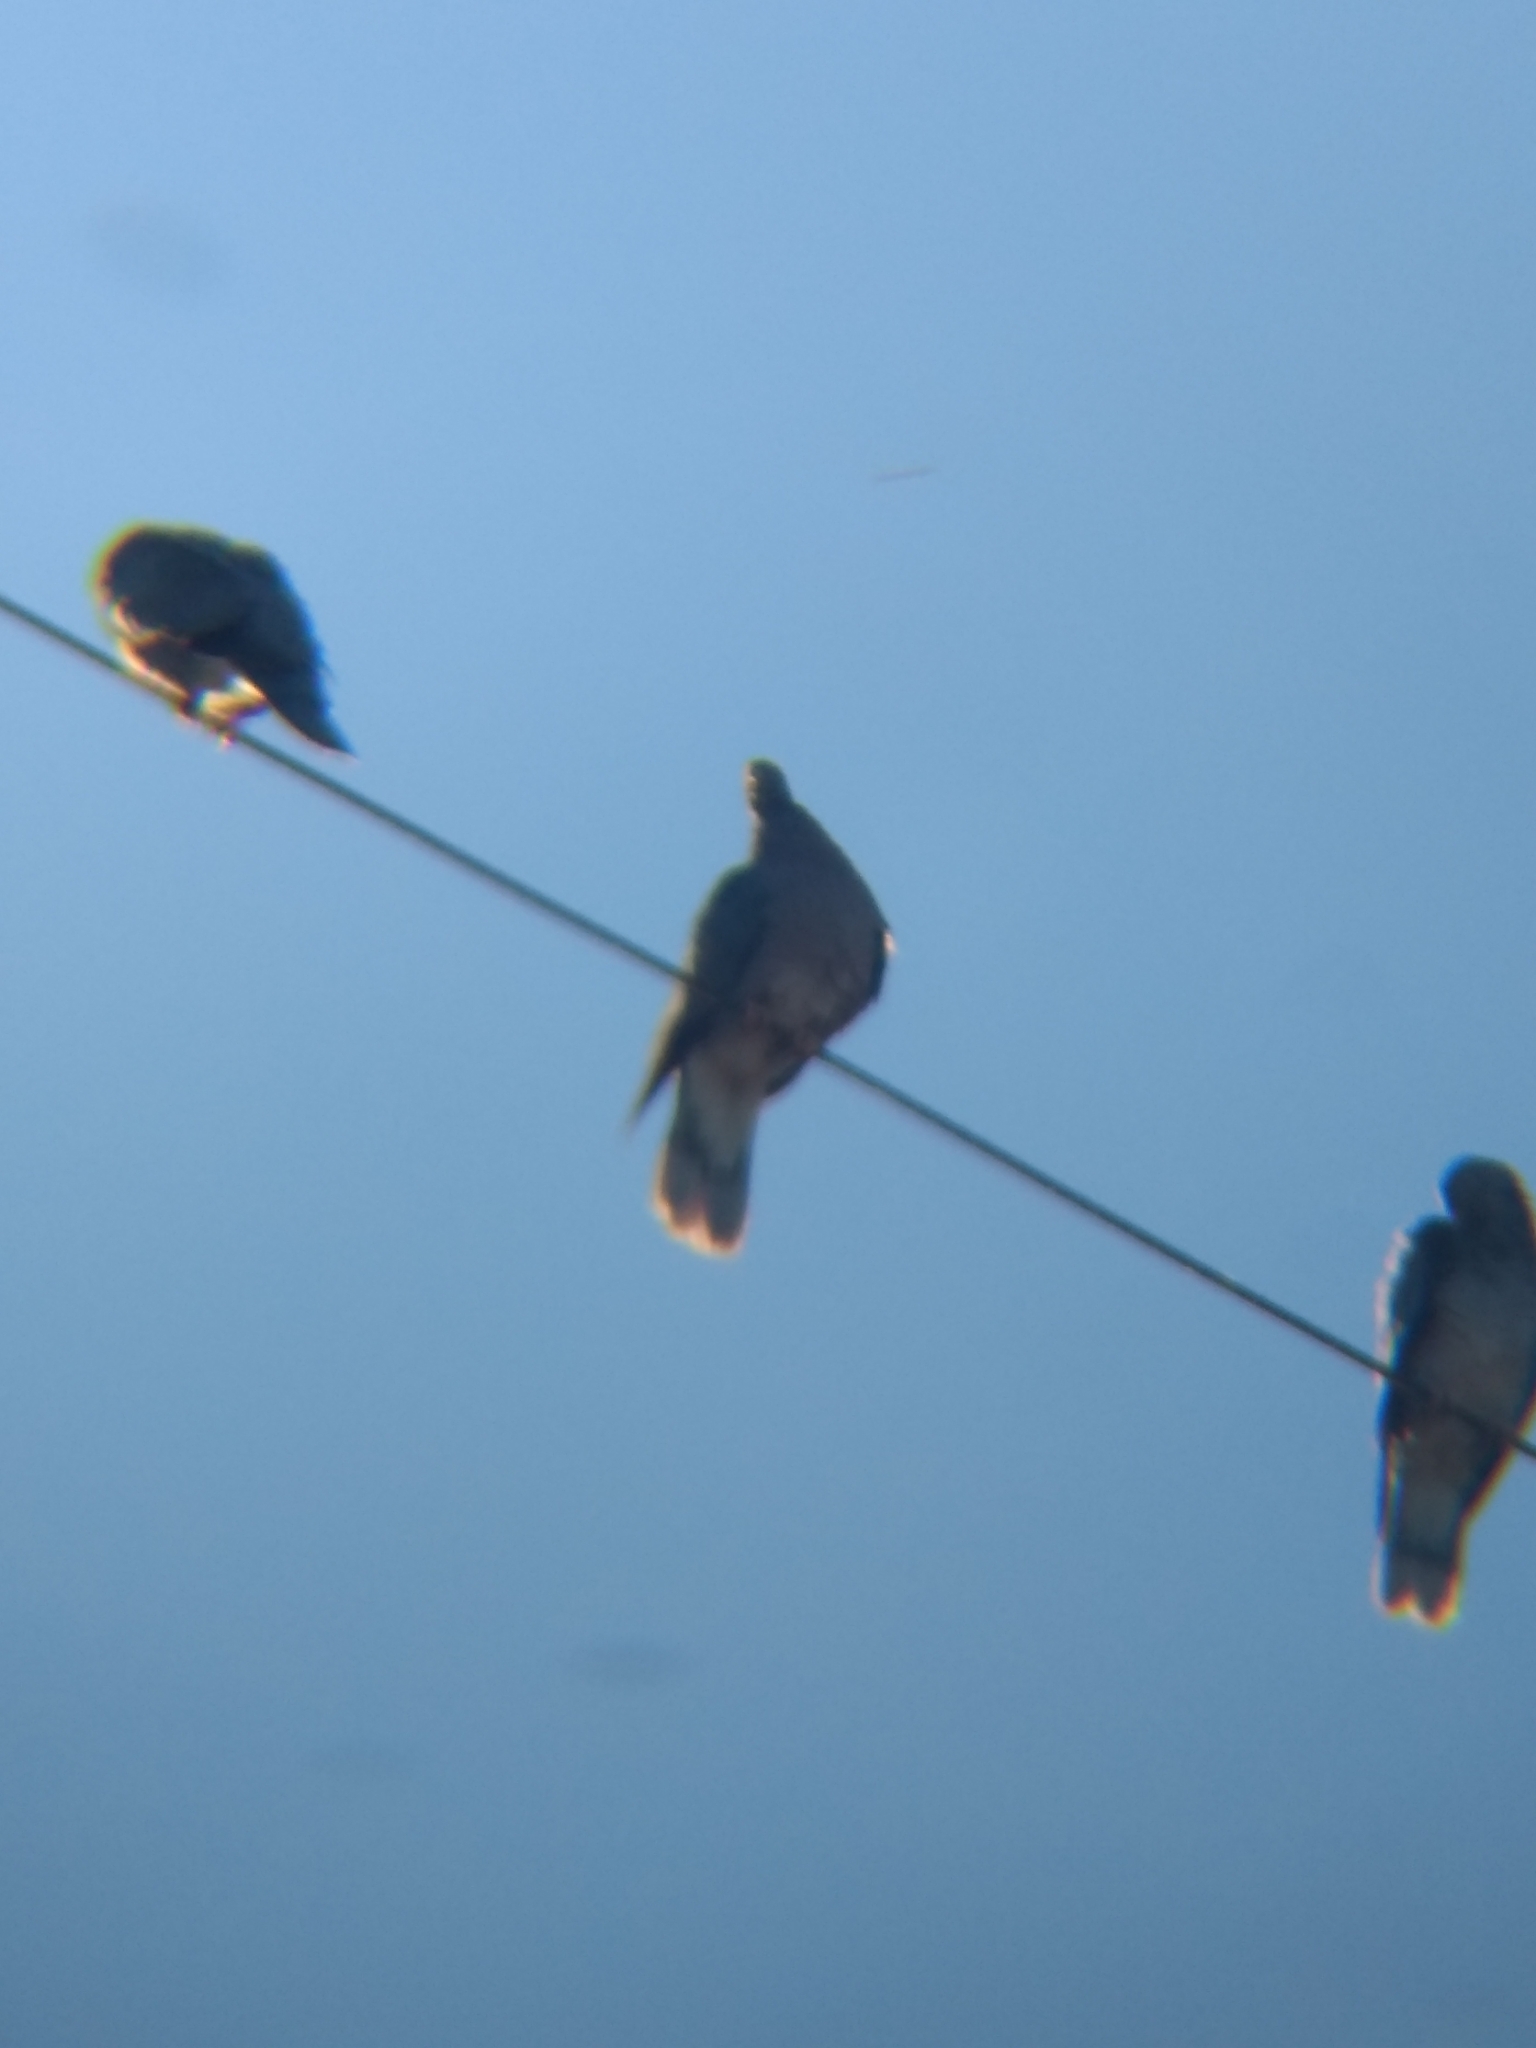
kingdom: Animalia
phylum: Chordata
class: Aves
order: Columbiformes
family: Columbidae
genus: Patagioenas
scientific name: Patagioenas fasciata
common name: Band-tailed pigeon
